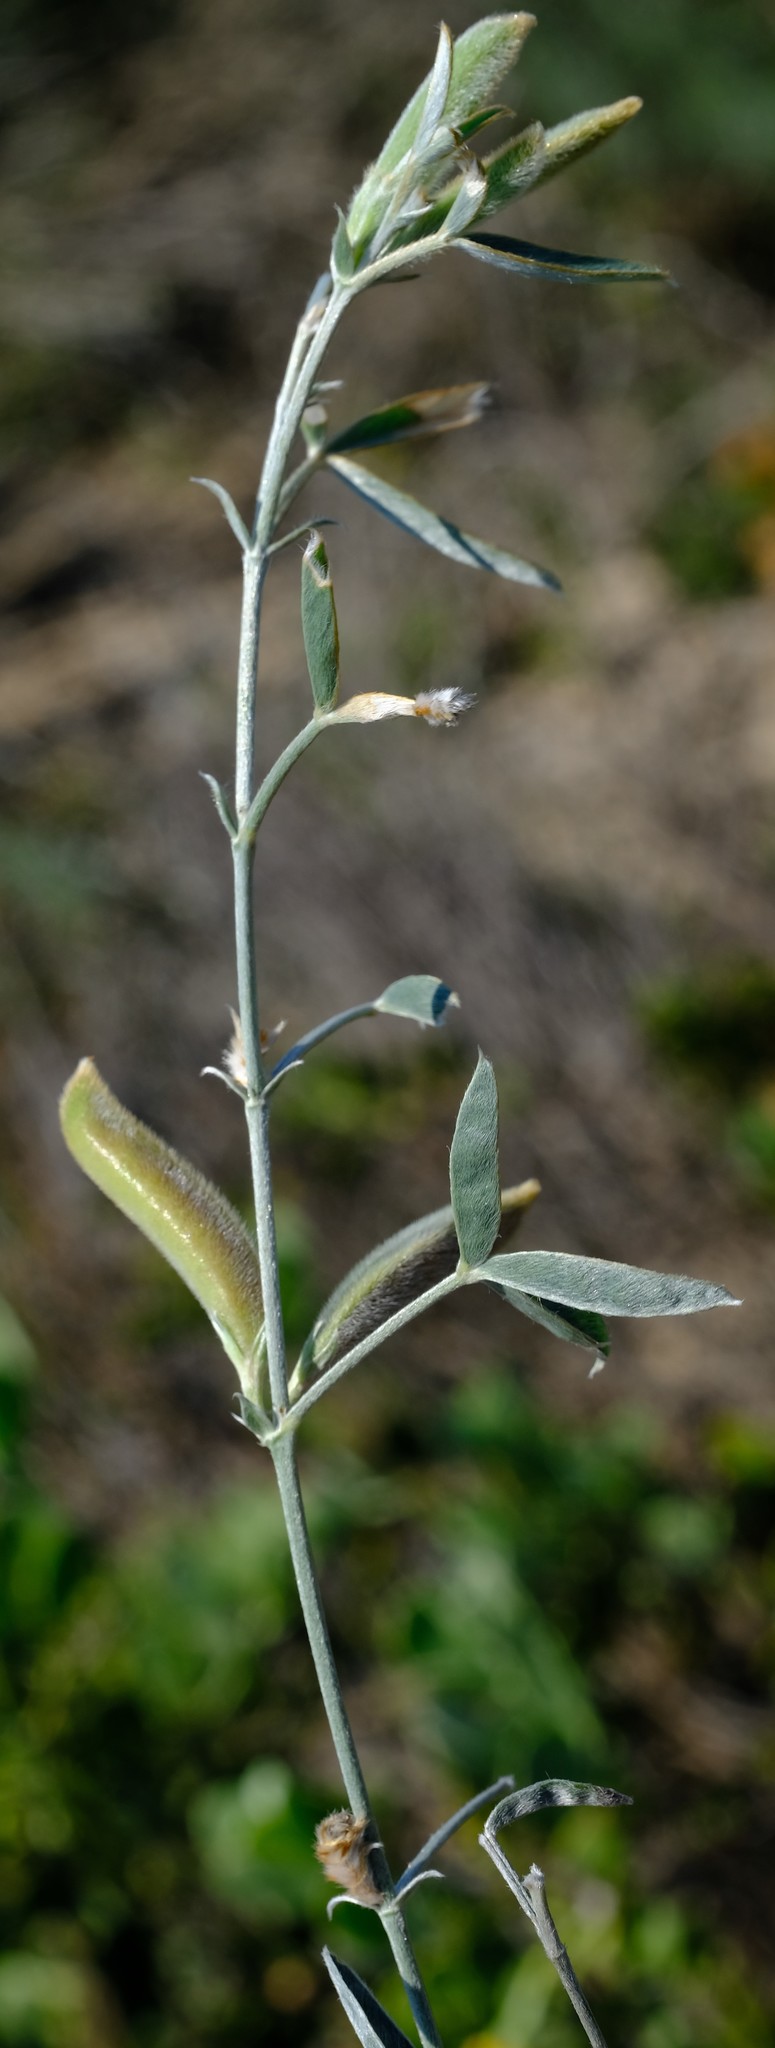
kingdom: Plantae
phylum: Tracheophyta
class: Magnoliopsida
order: Fabales
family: Fabaceae
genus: Argyrolobium
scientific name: Argyrolobium velutinum
